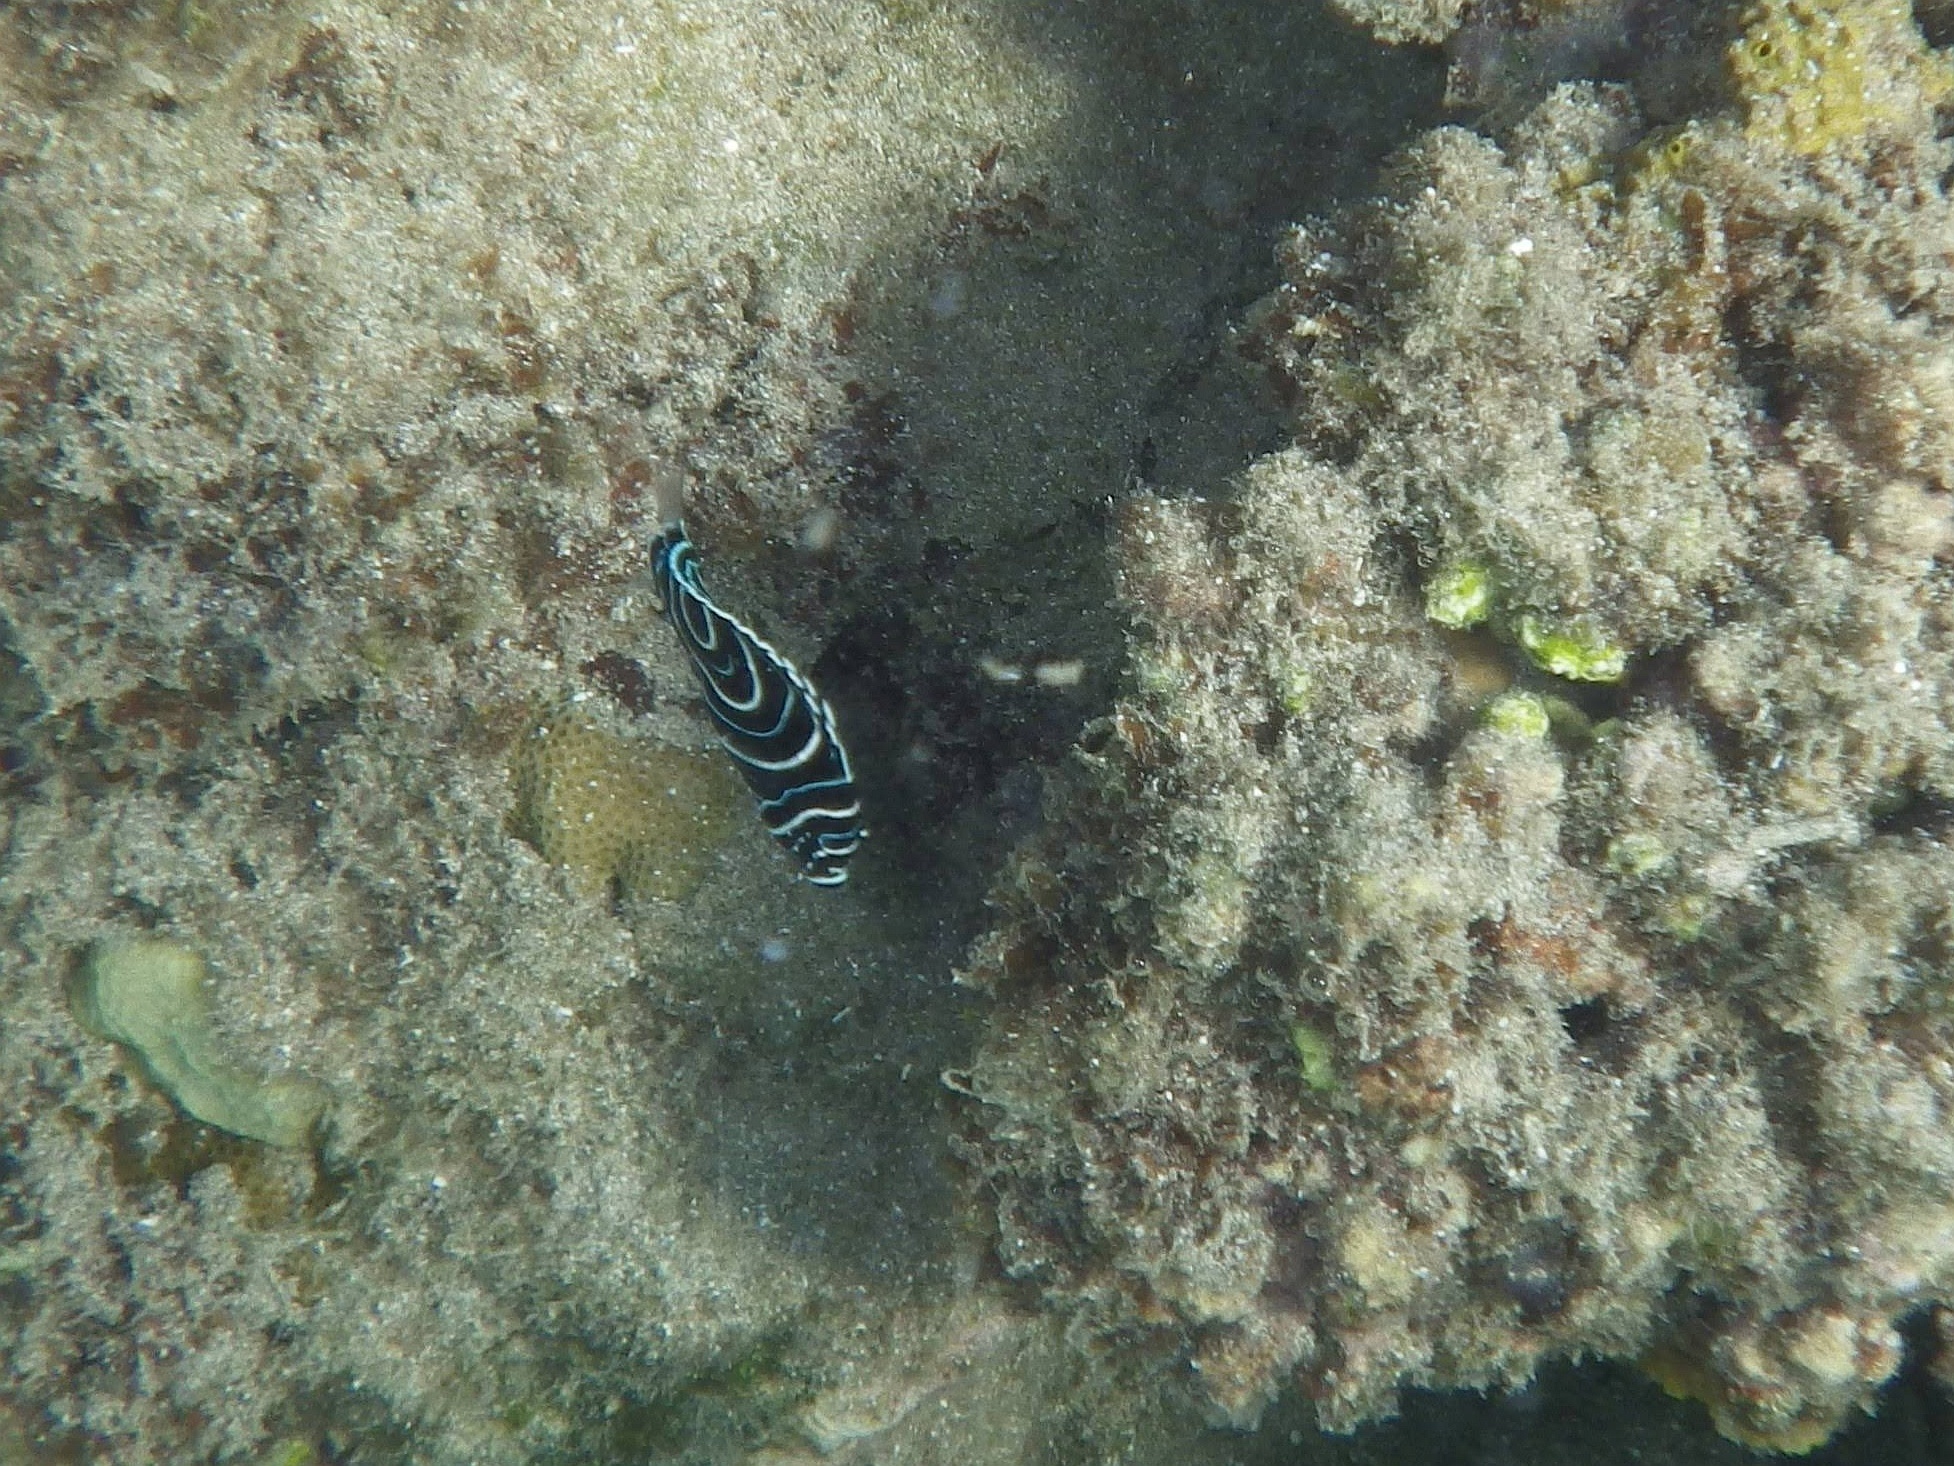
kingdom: Animalia
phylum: Chordata
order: Perciformes
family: Pomacanthidae
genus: Pomacanthus
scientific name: Pomacanthus imperator
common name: Emperor angelfish
